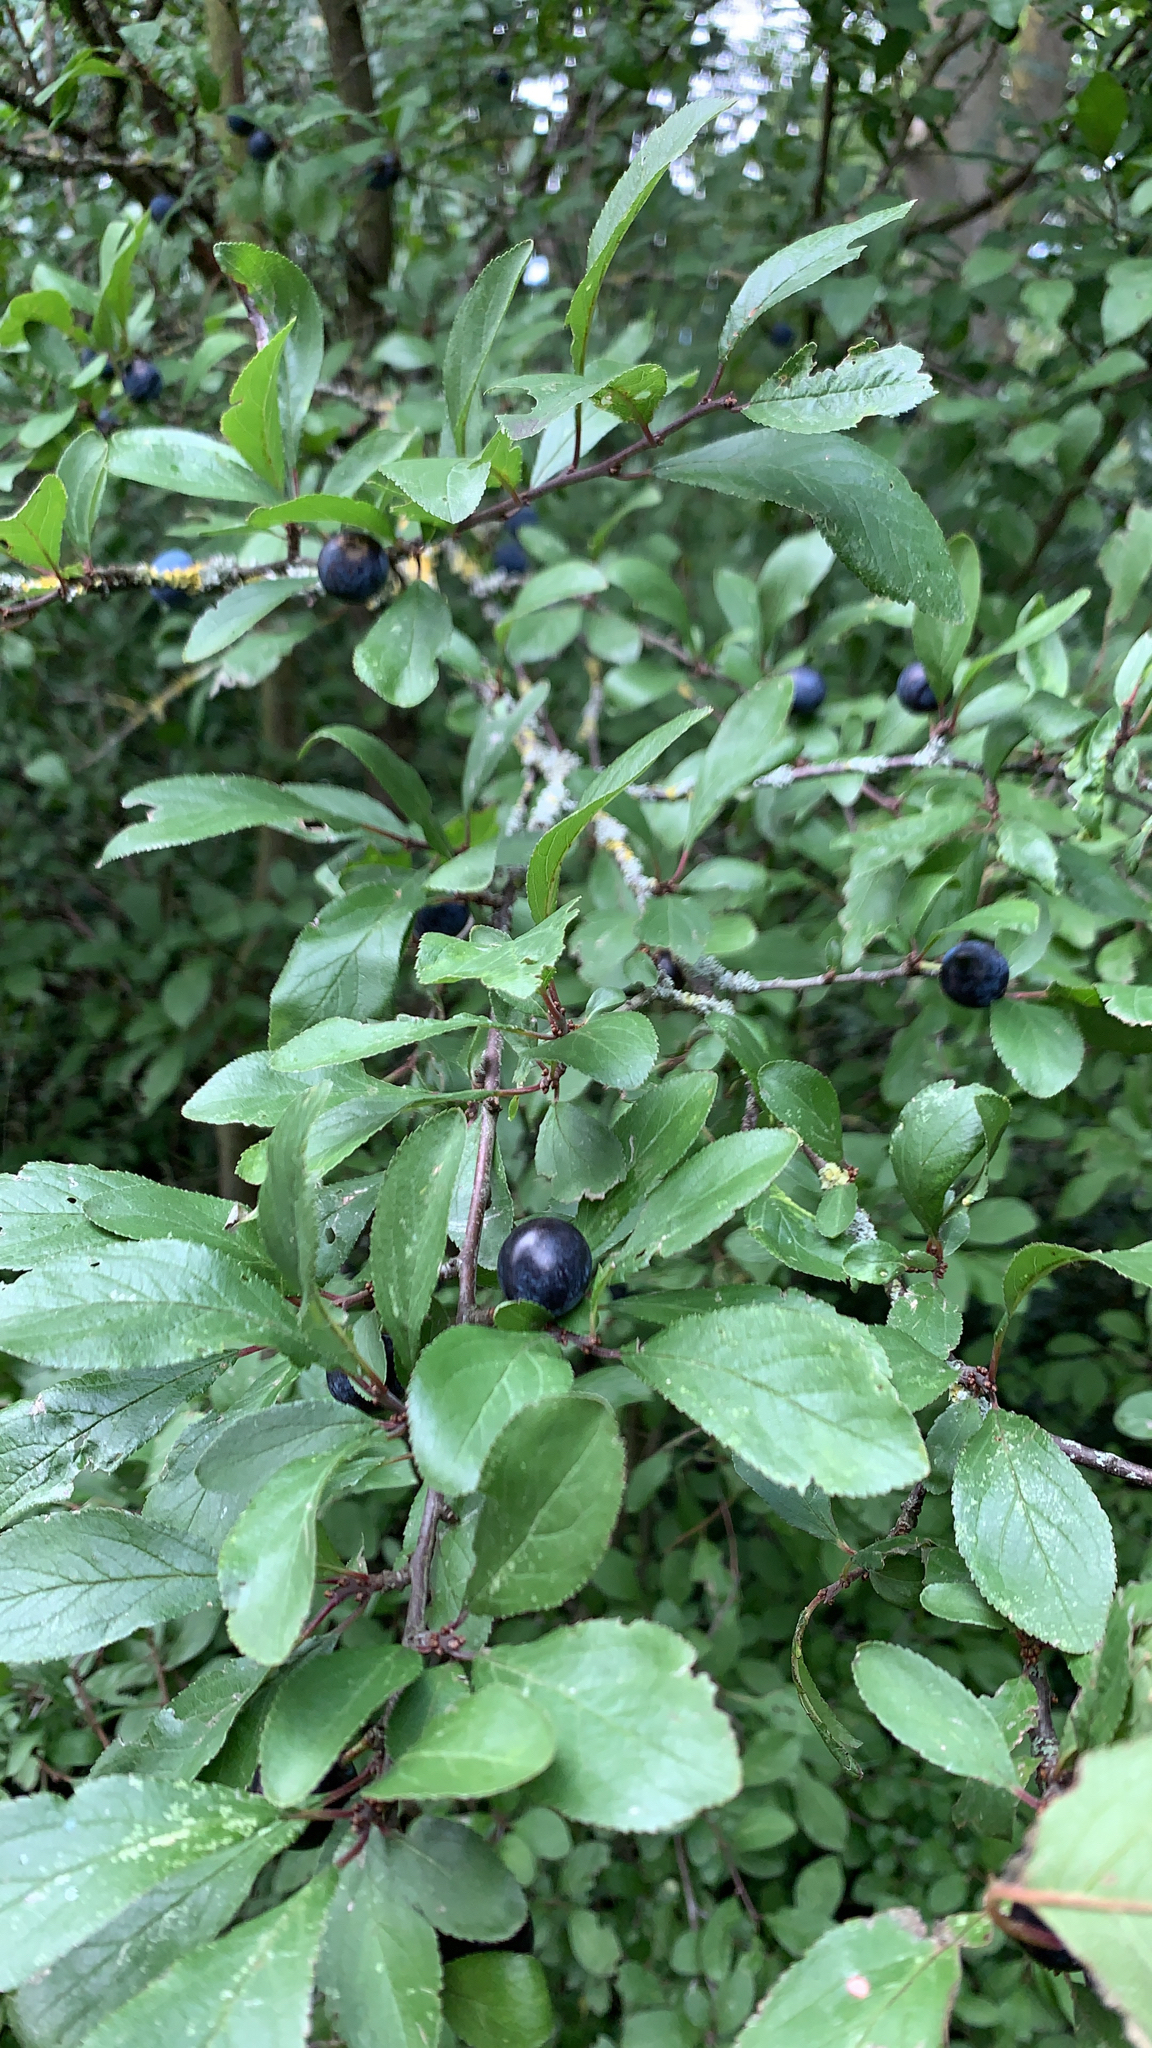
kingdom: Plantae
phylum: Tracheophyta
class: Magnoliopsida
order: Rosales
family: Rosaceae
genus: Prunus
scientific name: Prunus spinosa
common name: Blackthorn
